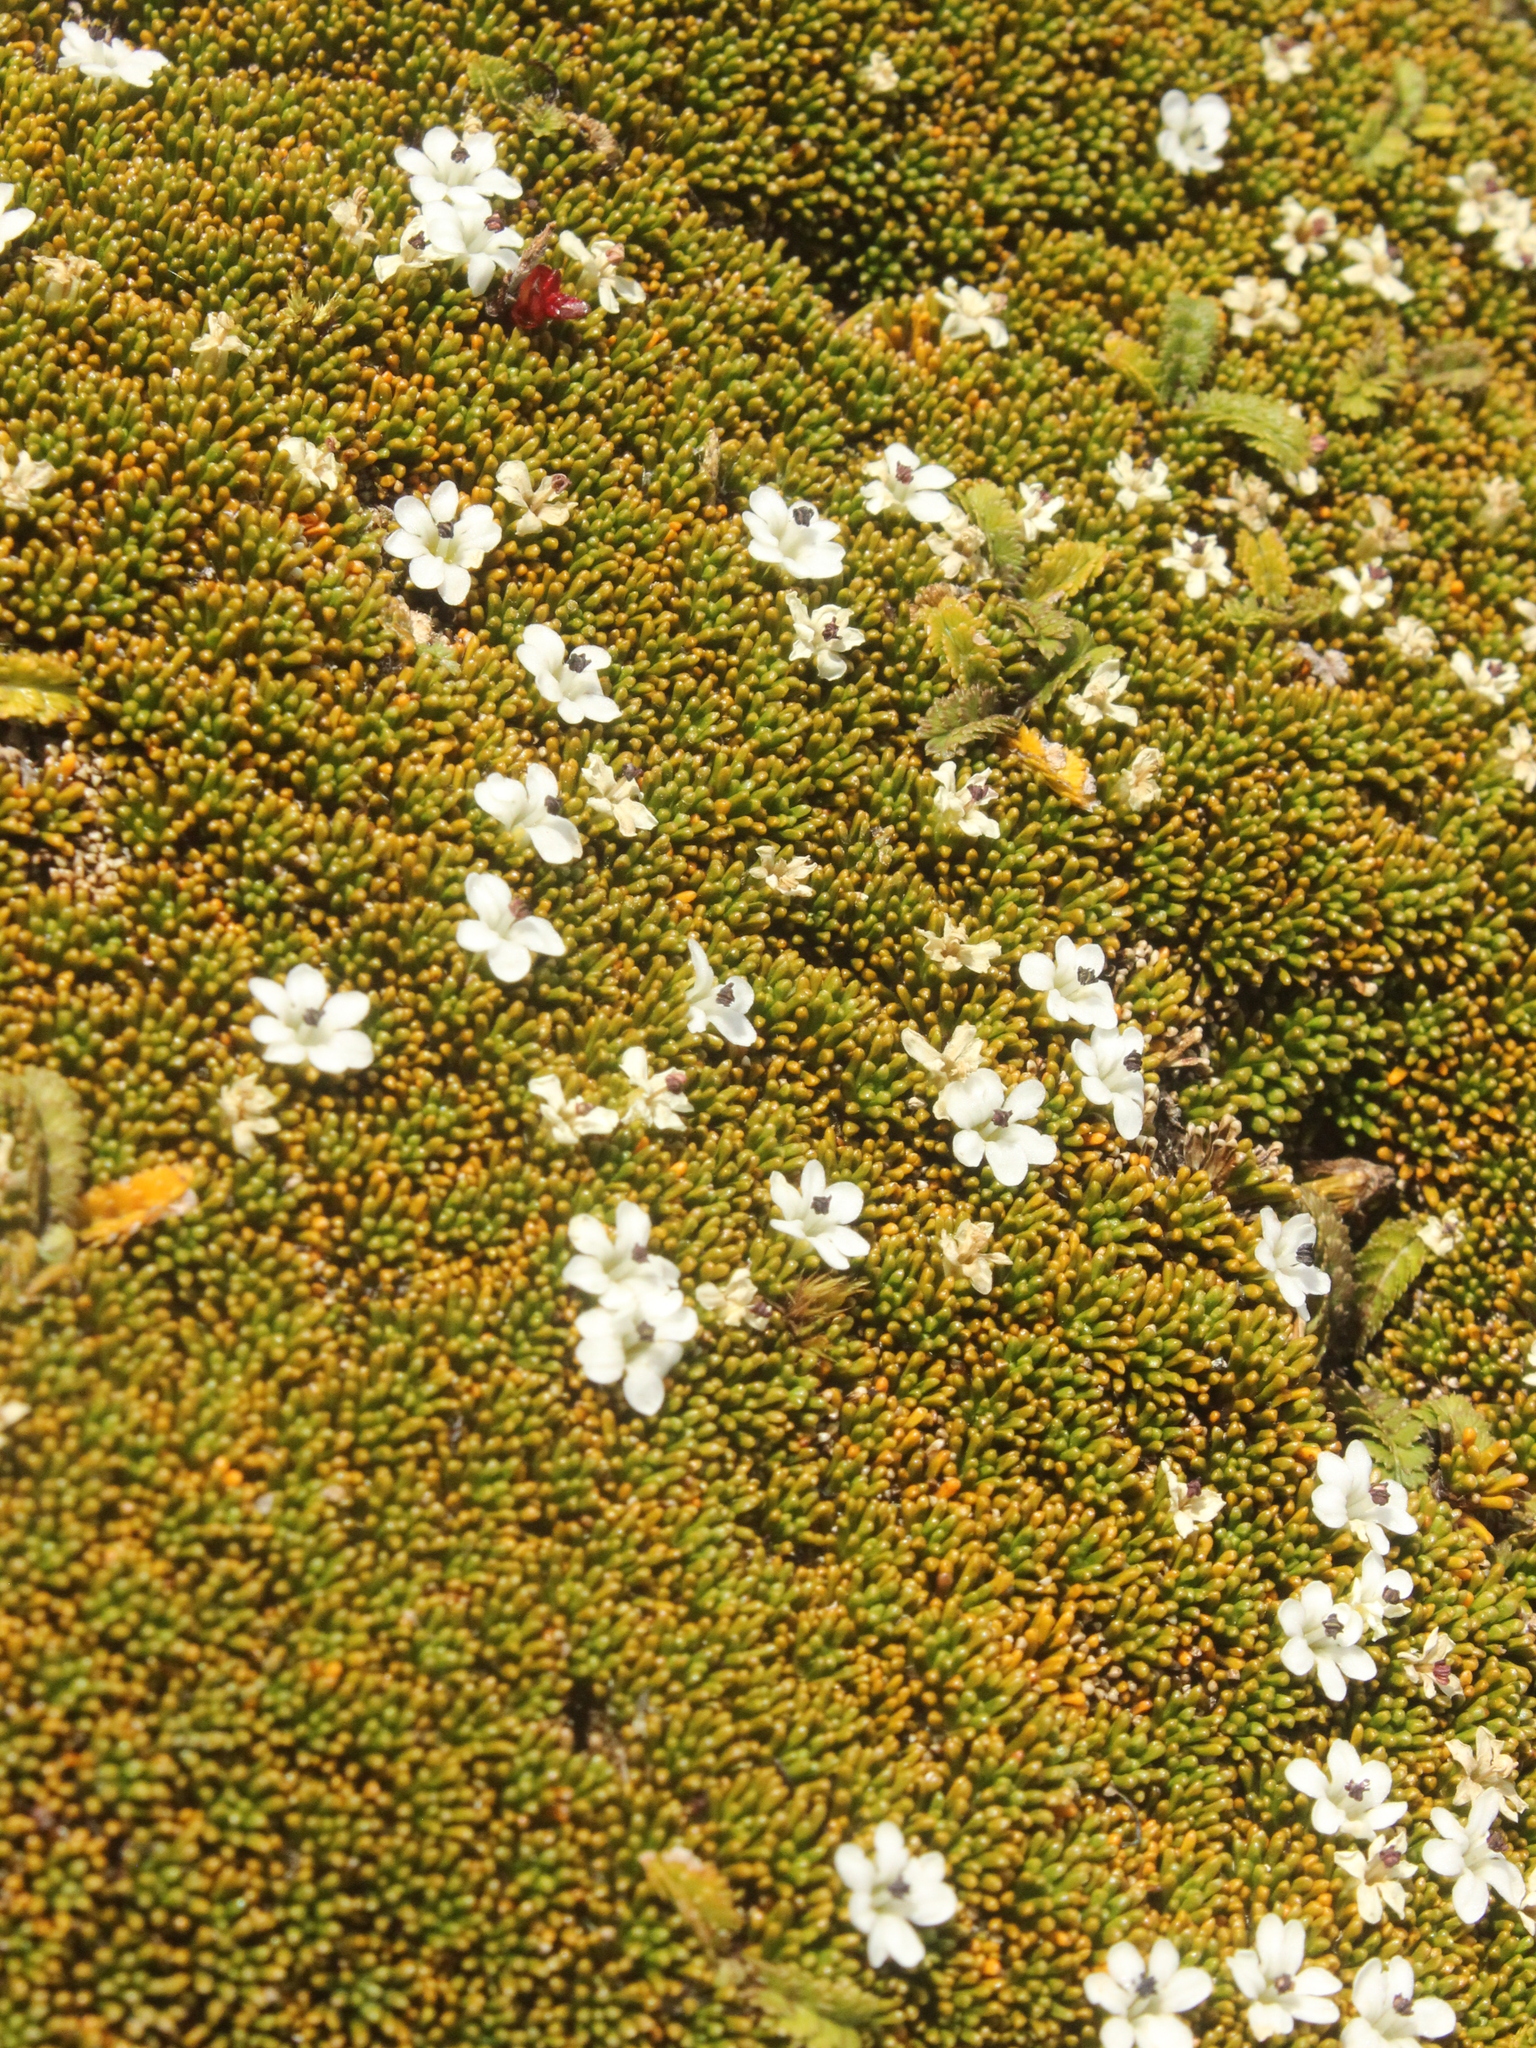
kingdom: Plantae
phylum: Tracheophyta
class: Magnoliopsida
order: Asterales
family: Stylidiaceae
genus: Phyllachne
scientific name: Phyllachne colensoi
